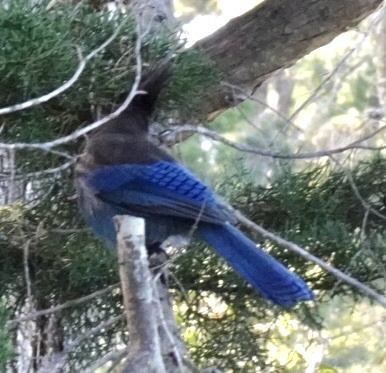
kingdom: Animalia
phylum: Chordata
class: Aves
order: Passeriformes
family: Corvidae
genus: Cyanocitta
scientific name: Cyanocitta stelleri
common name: Steller's jay
